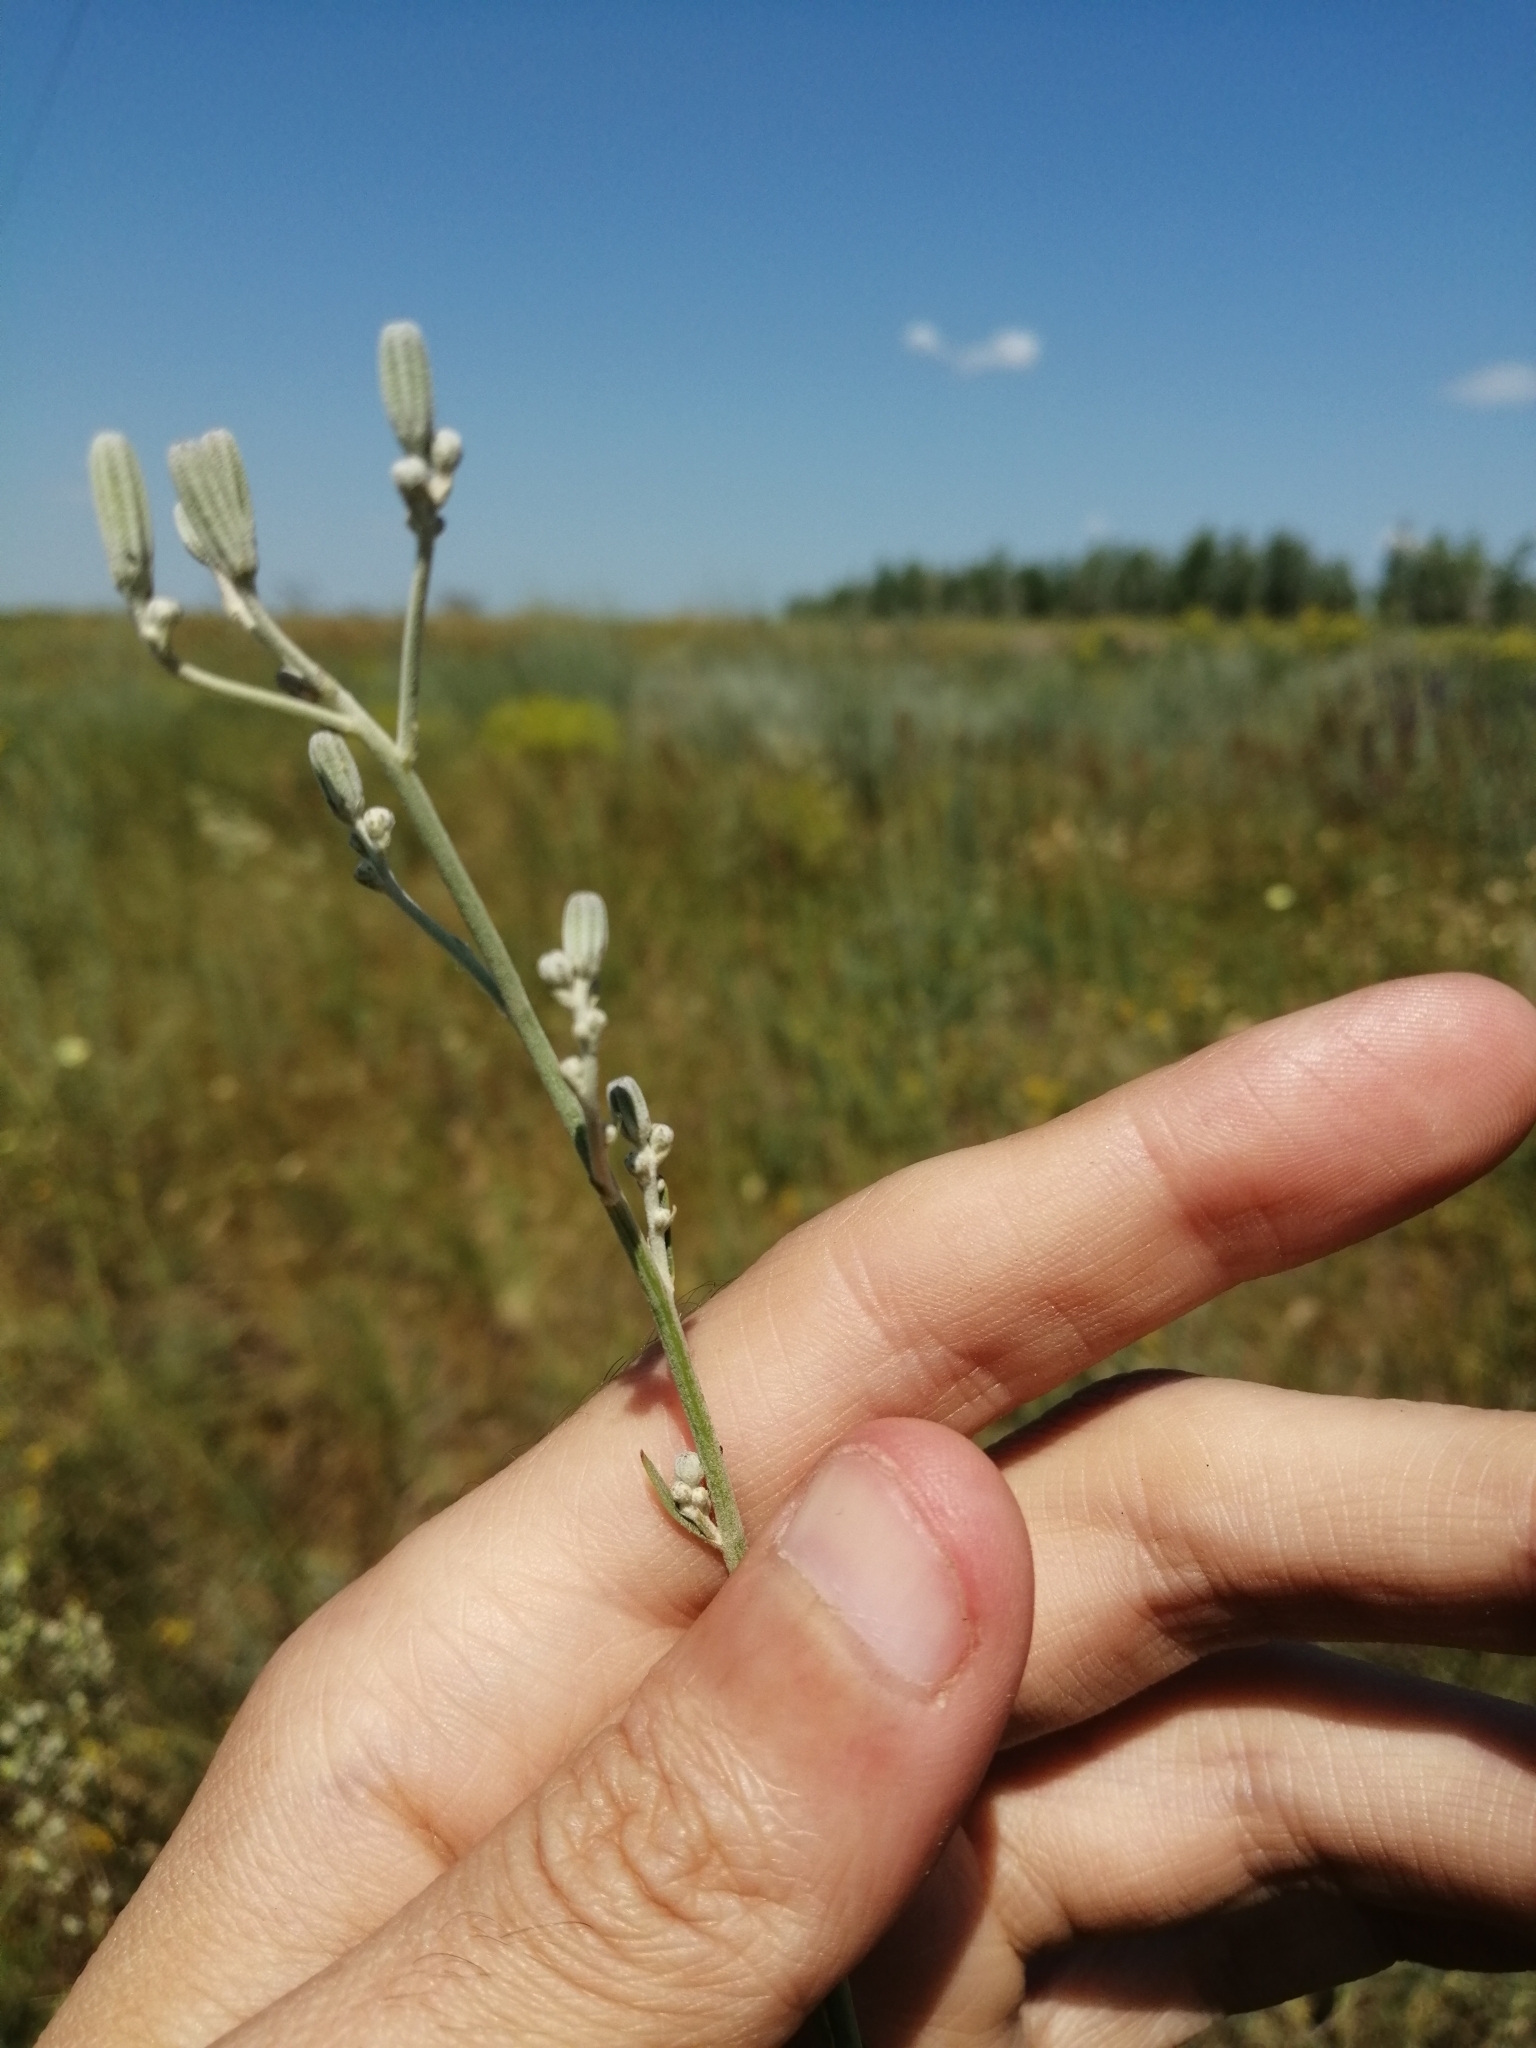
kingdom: Plantae
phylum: Tracheophyta
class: Magnoliopsida
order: Asterales
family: Asteraceae
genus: Chondrilla
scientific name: Chondrilla juncea
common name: Skeleton weed
